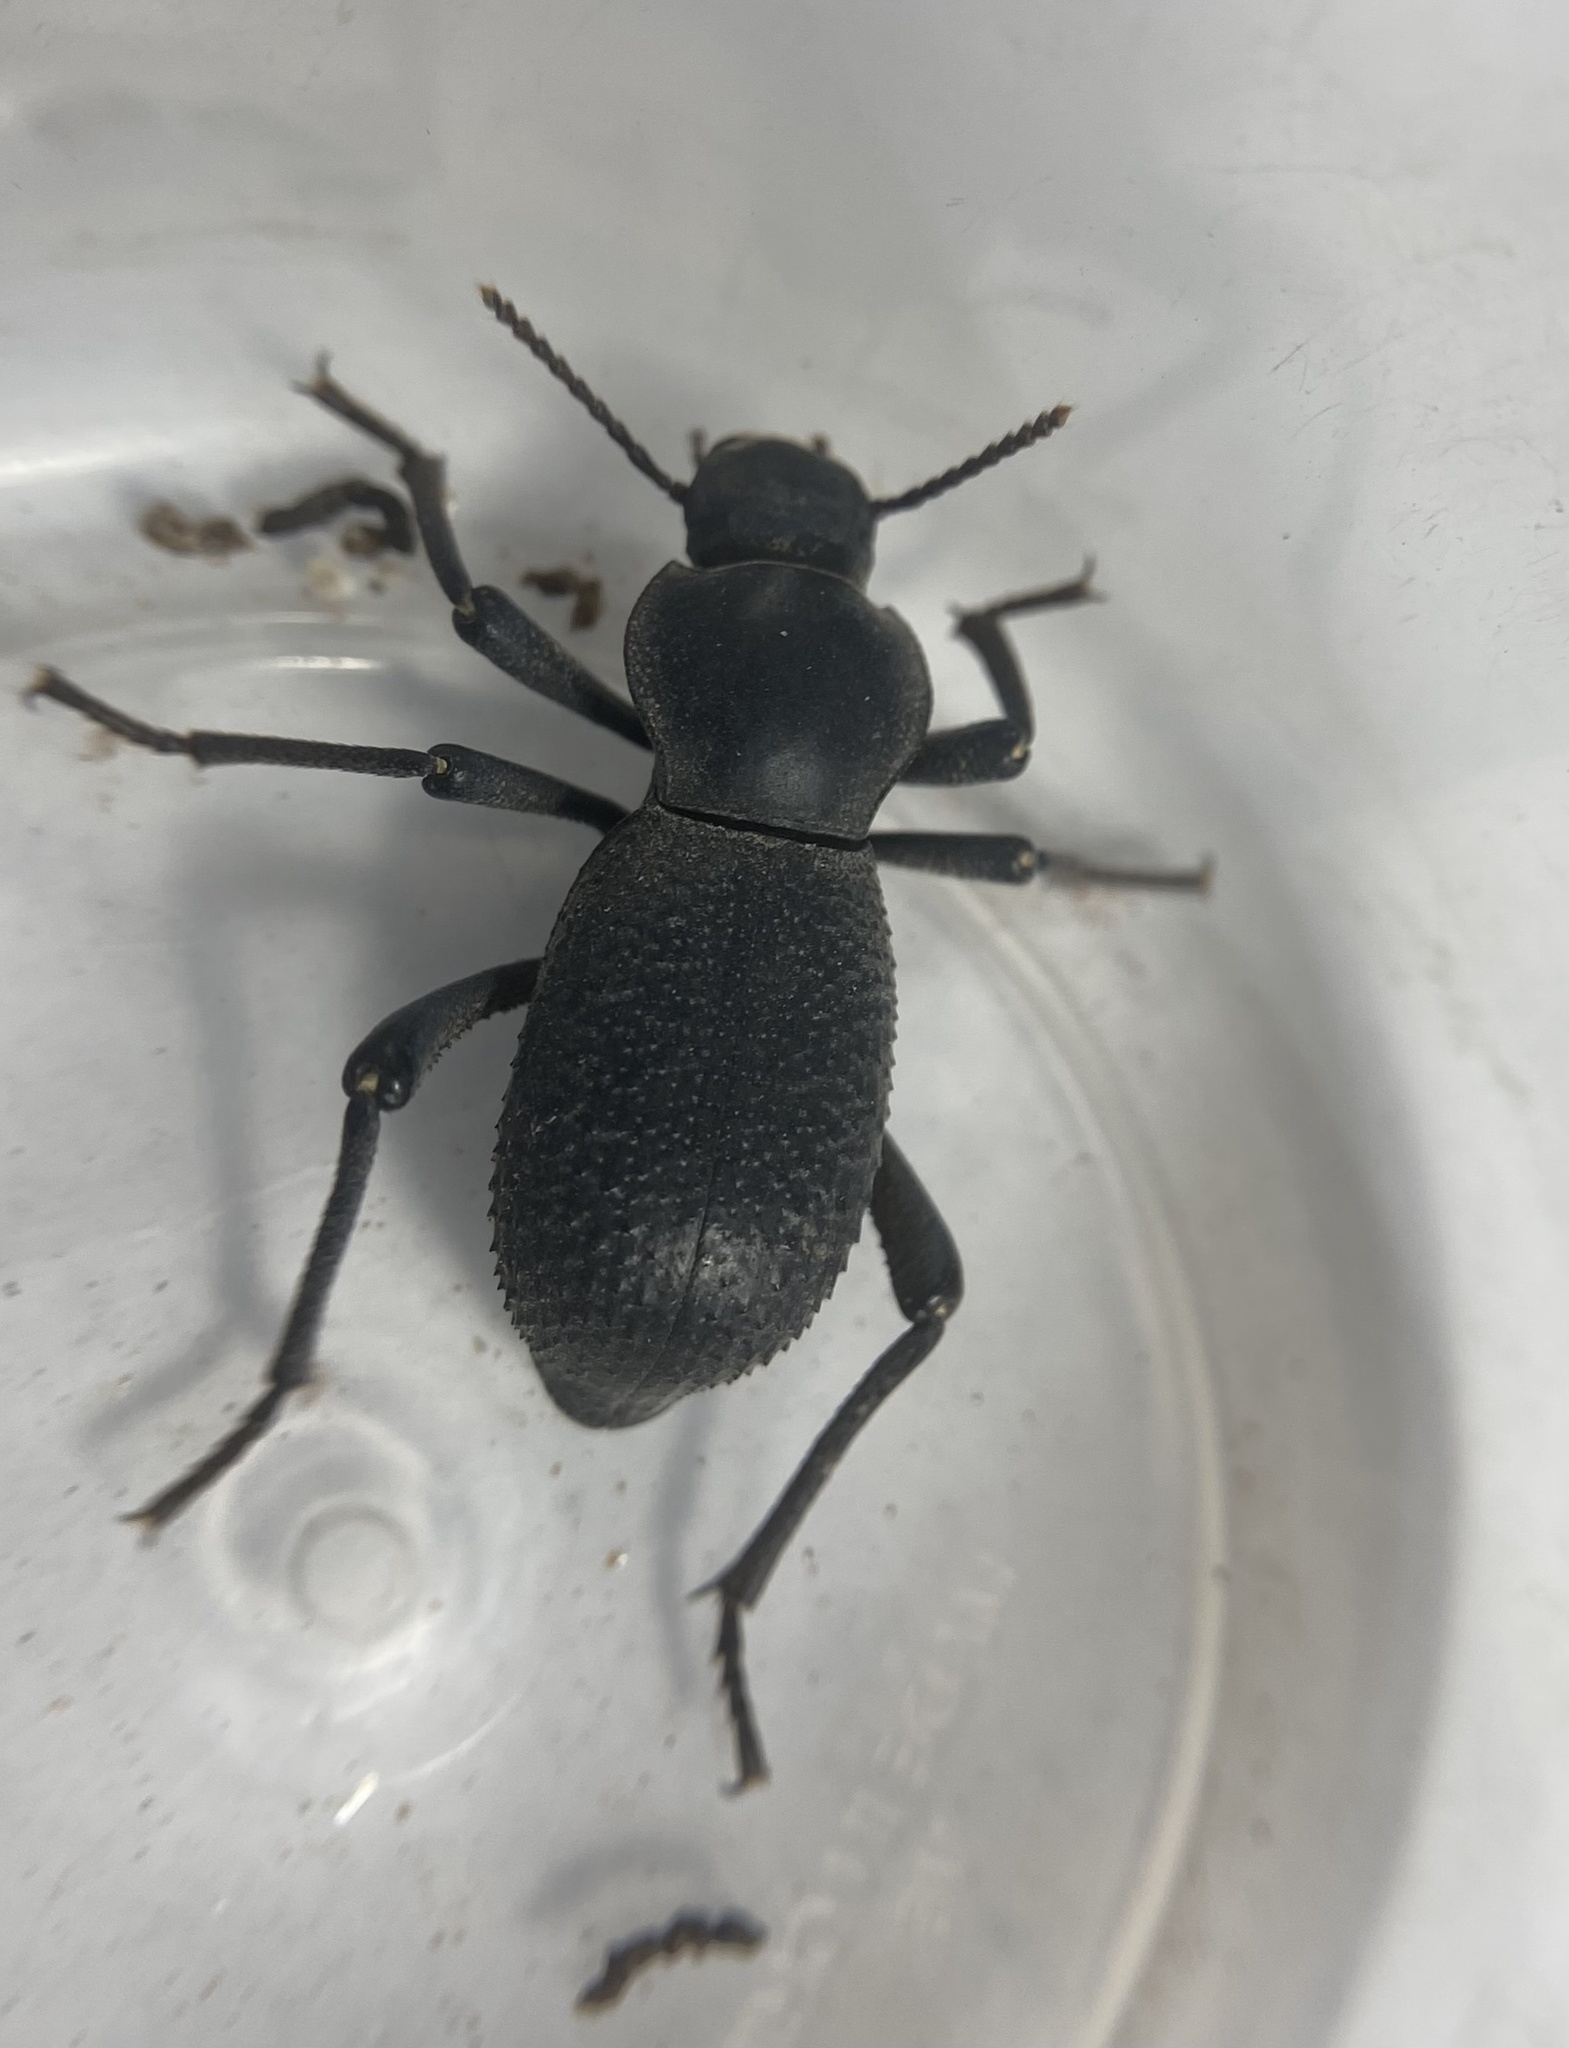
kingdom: Animalia
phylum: Arthropoda
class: Insecta
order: Coleoptera
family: Tenebrionidae
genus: Cryptoglossa
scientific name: Cryptoglossa muricata
